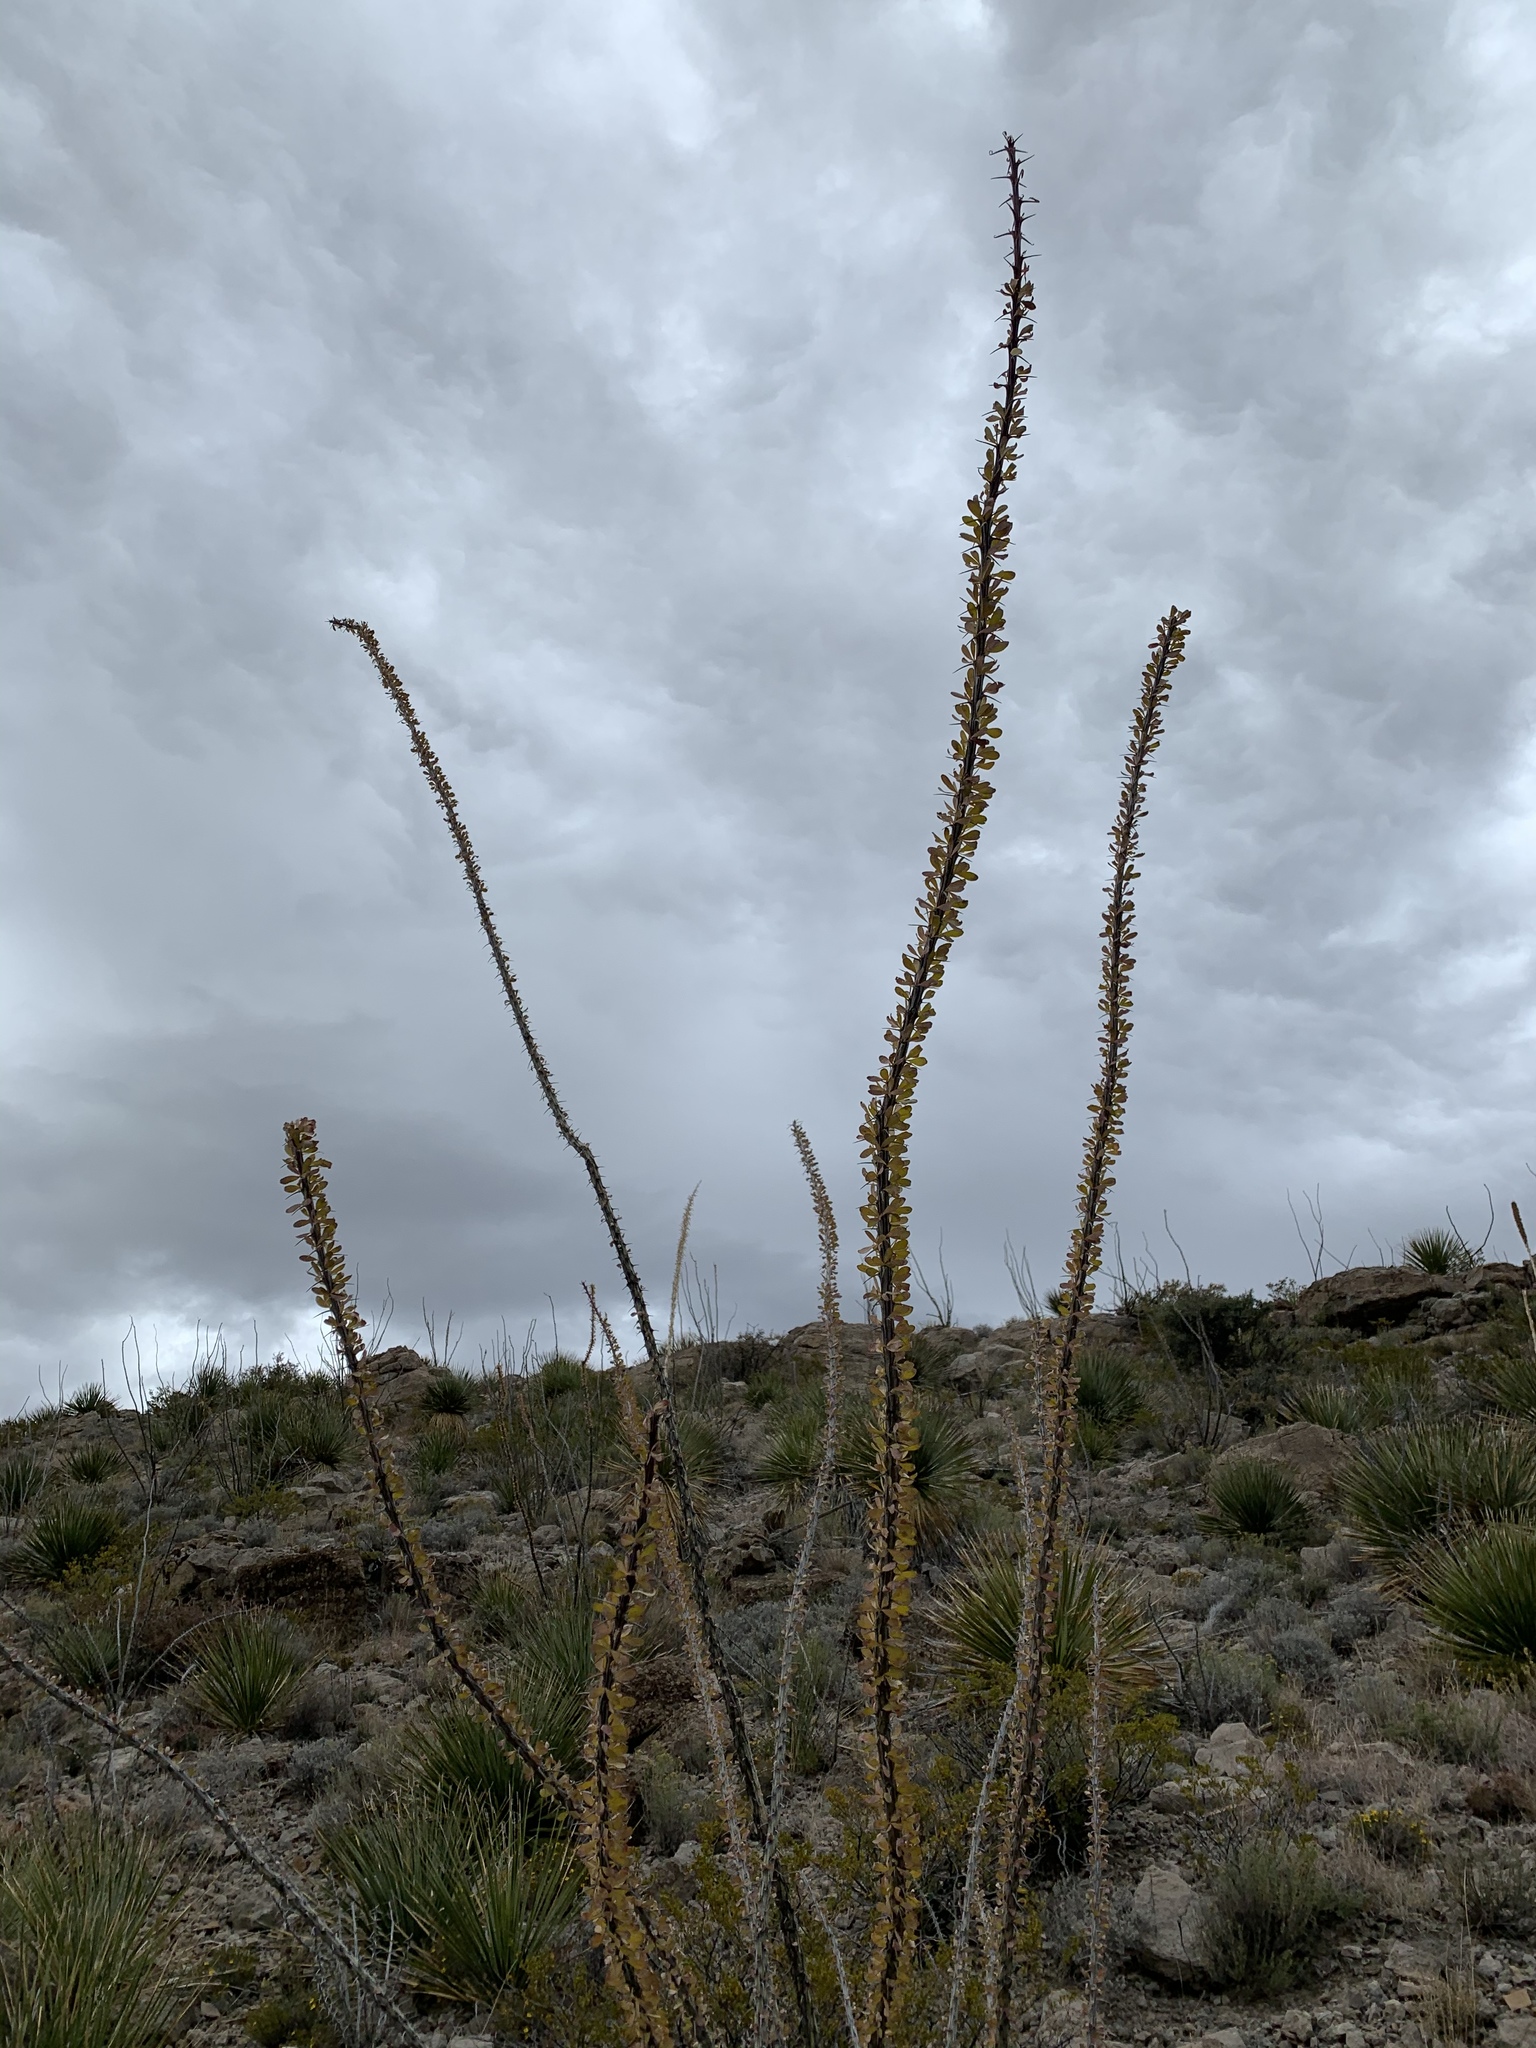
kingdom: Plantae
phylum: Tracheophyta
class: Magnoliopsida
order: Ericales
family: Fouquieriaceae
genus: Fouquieria
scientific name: Fouquieria splendens
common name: Vine-cactus
